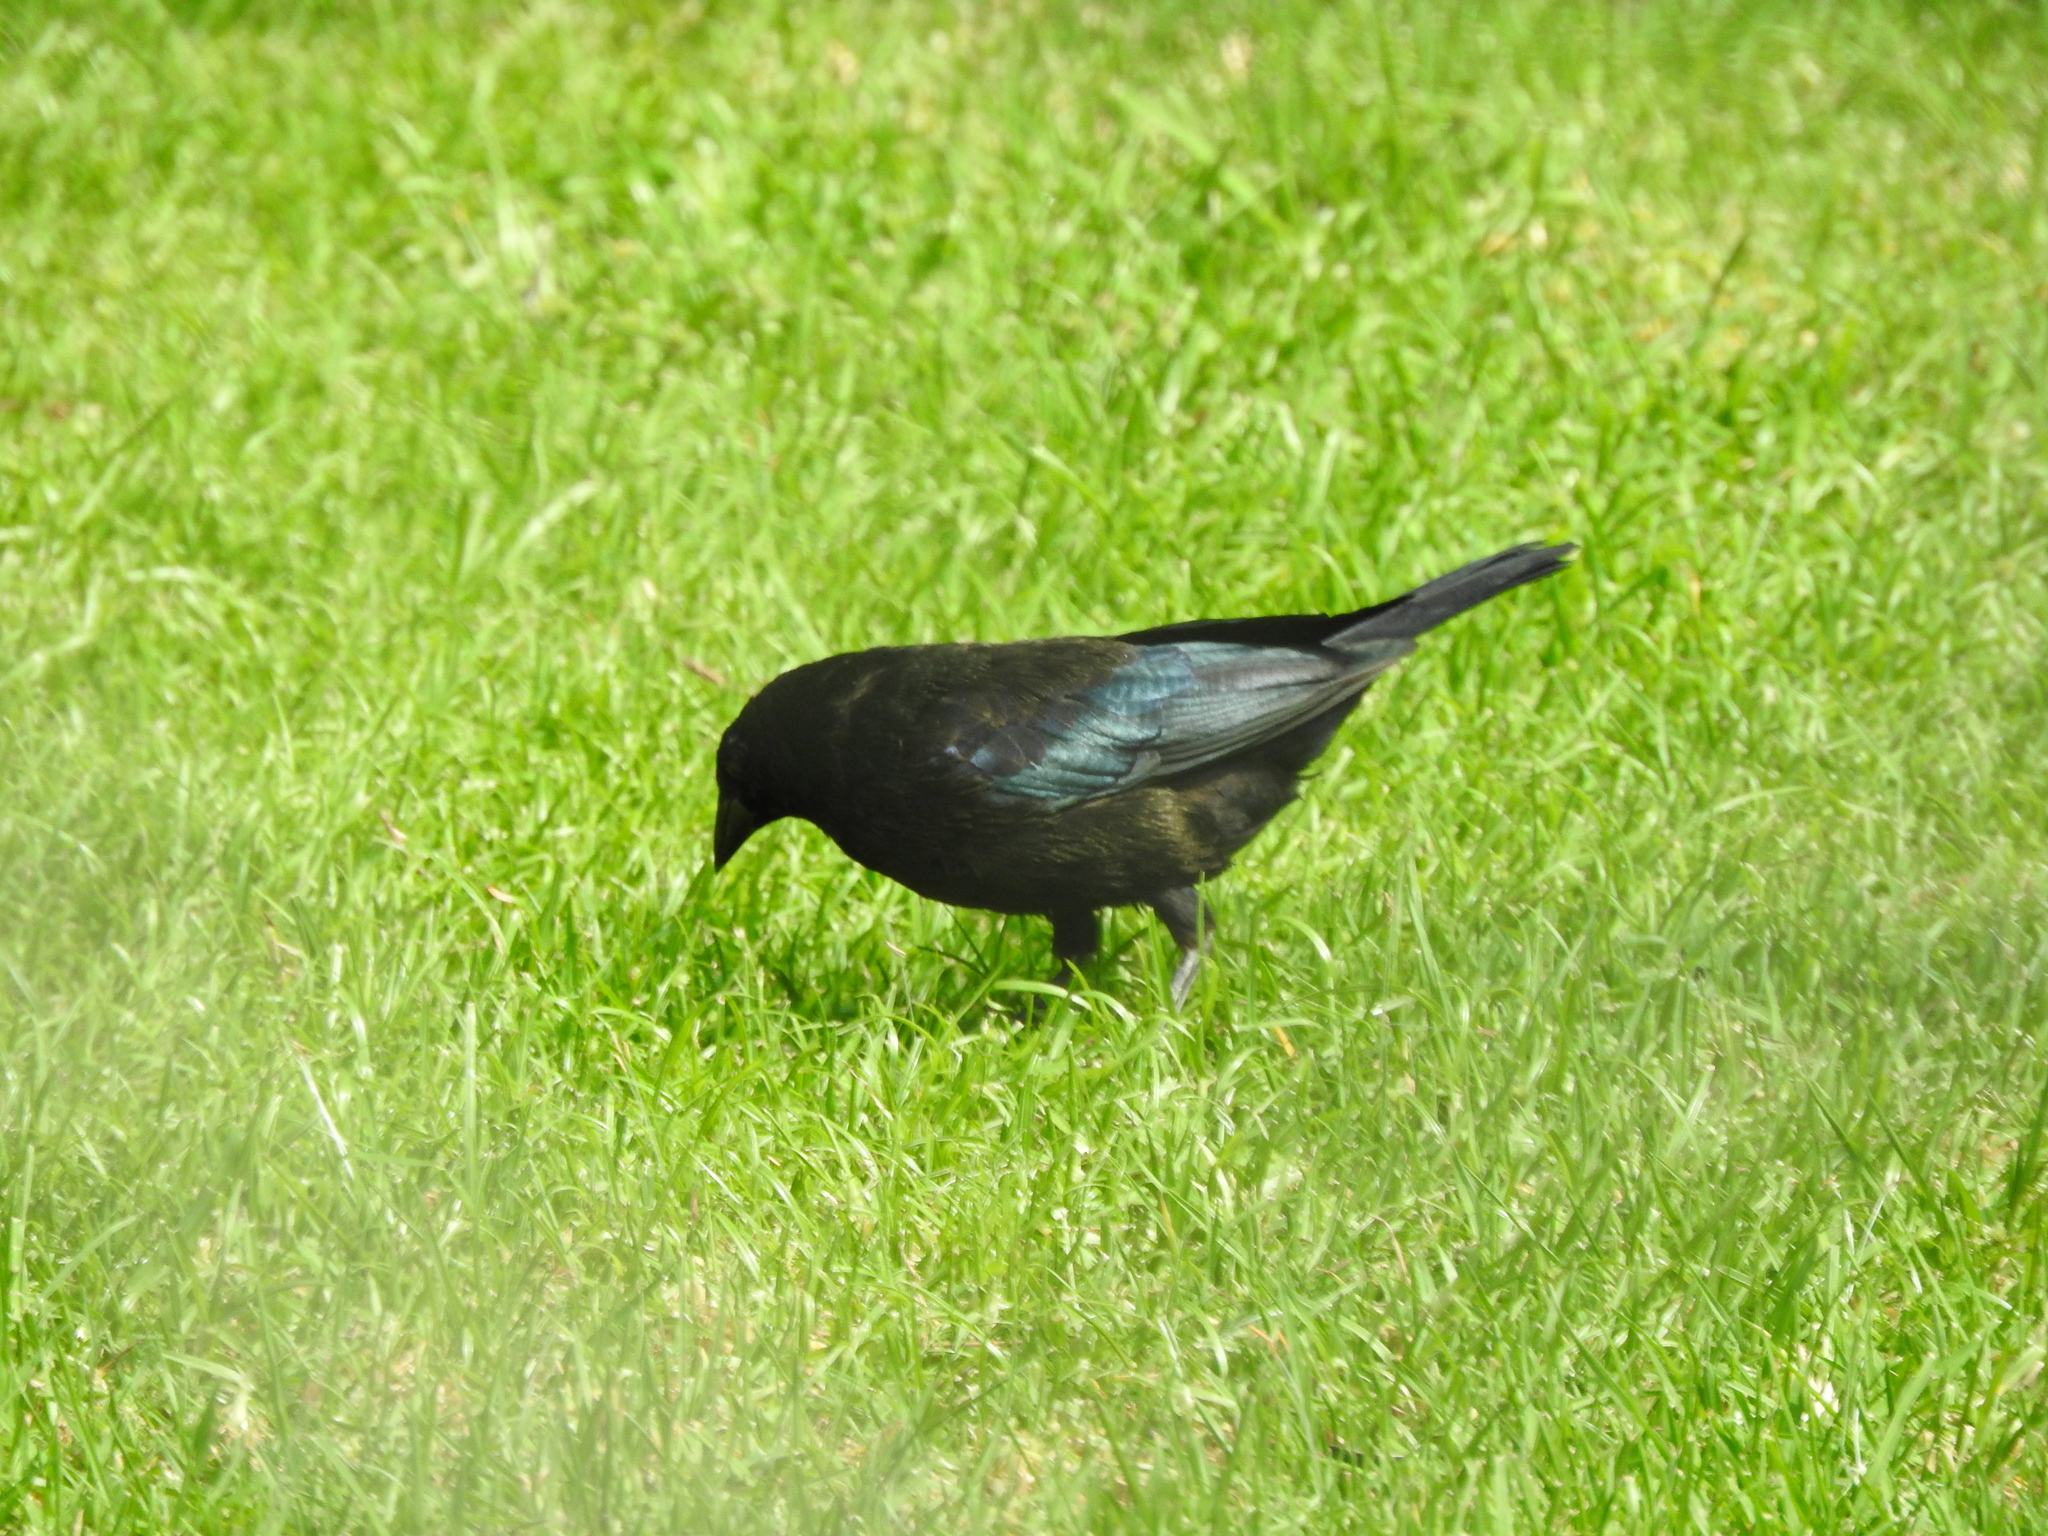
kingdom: Animalia
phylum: Chordata
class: Aves
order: Passeriformes
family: Icteridae
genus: Molothrus
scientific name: Molothrus aeneus
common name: Bronzed cowbird
